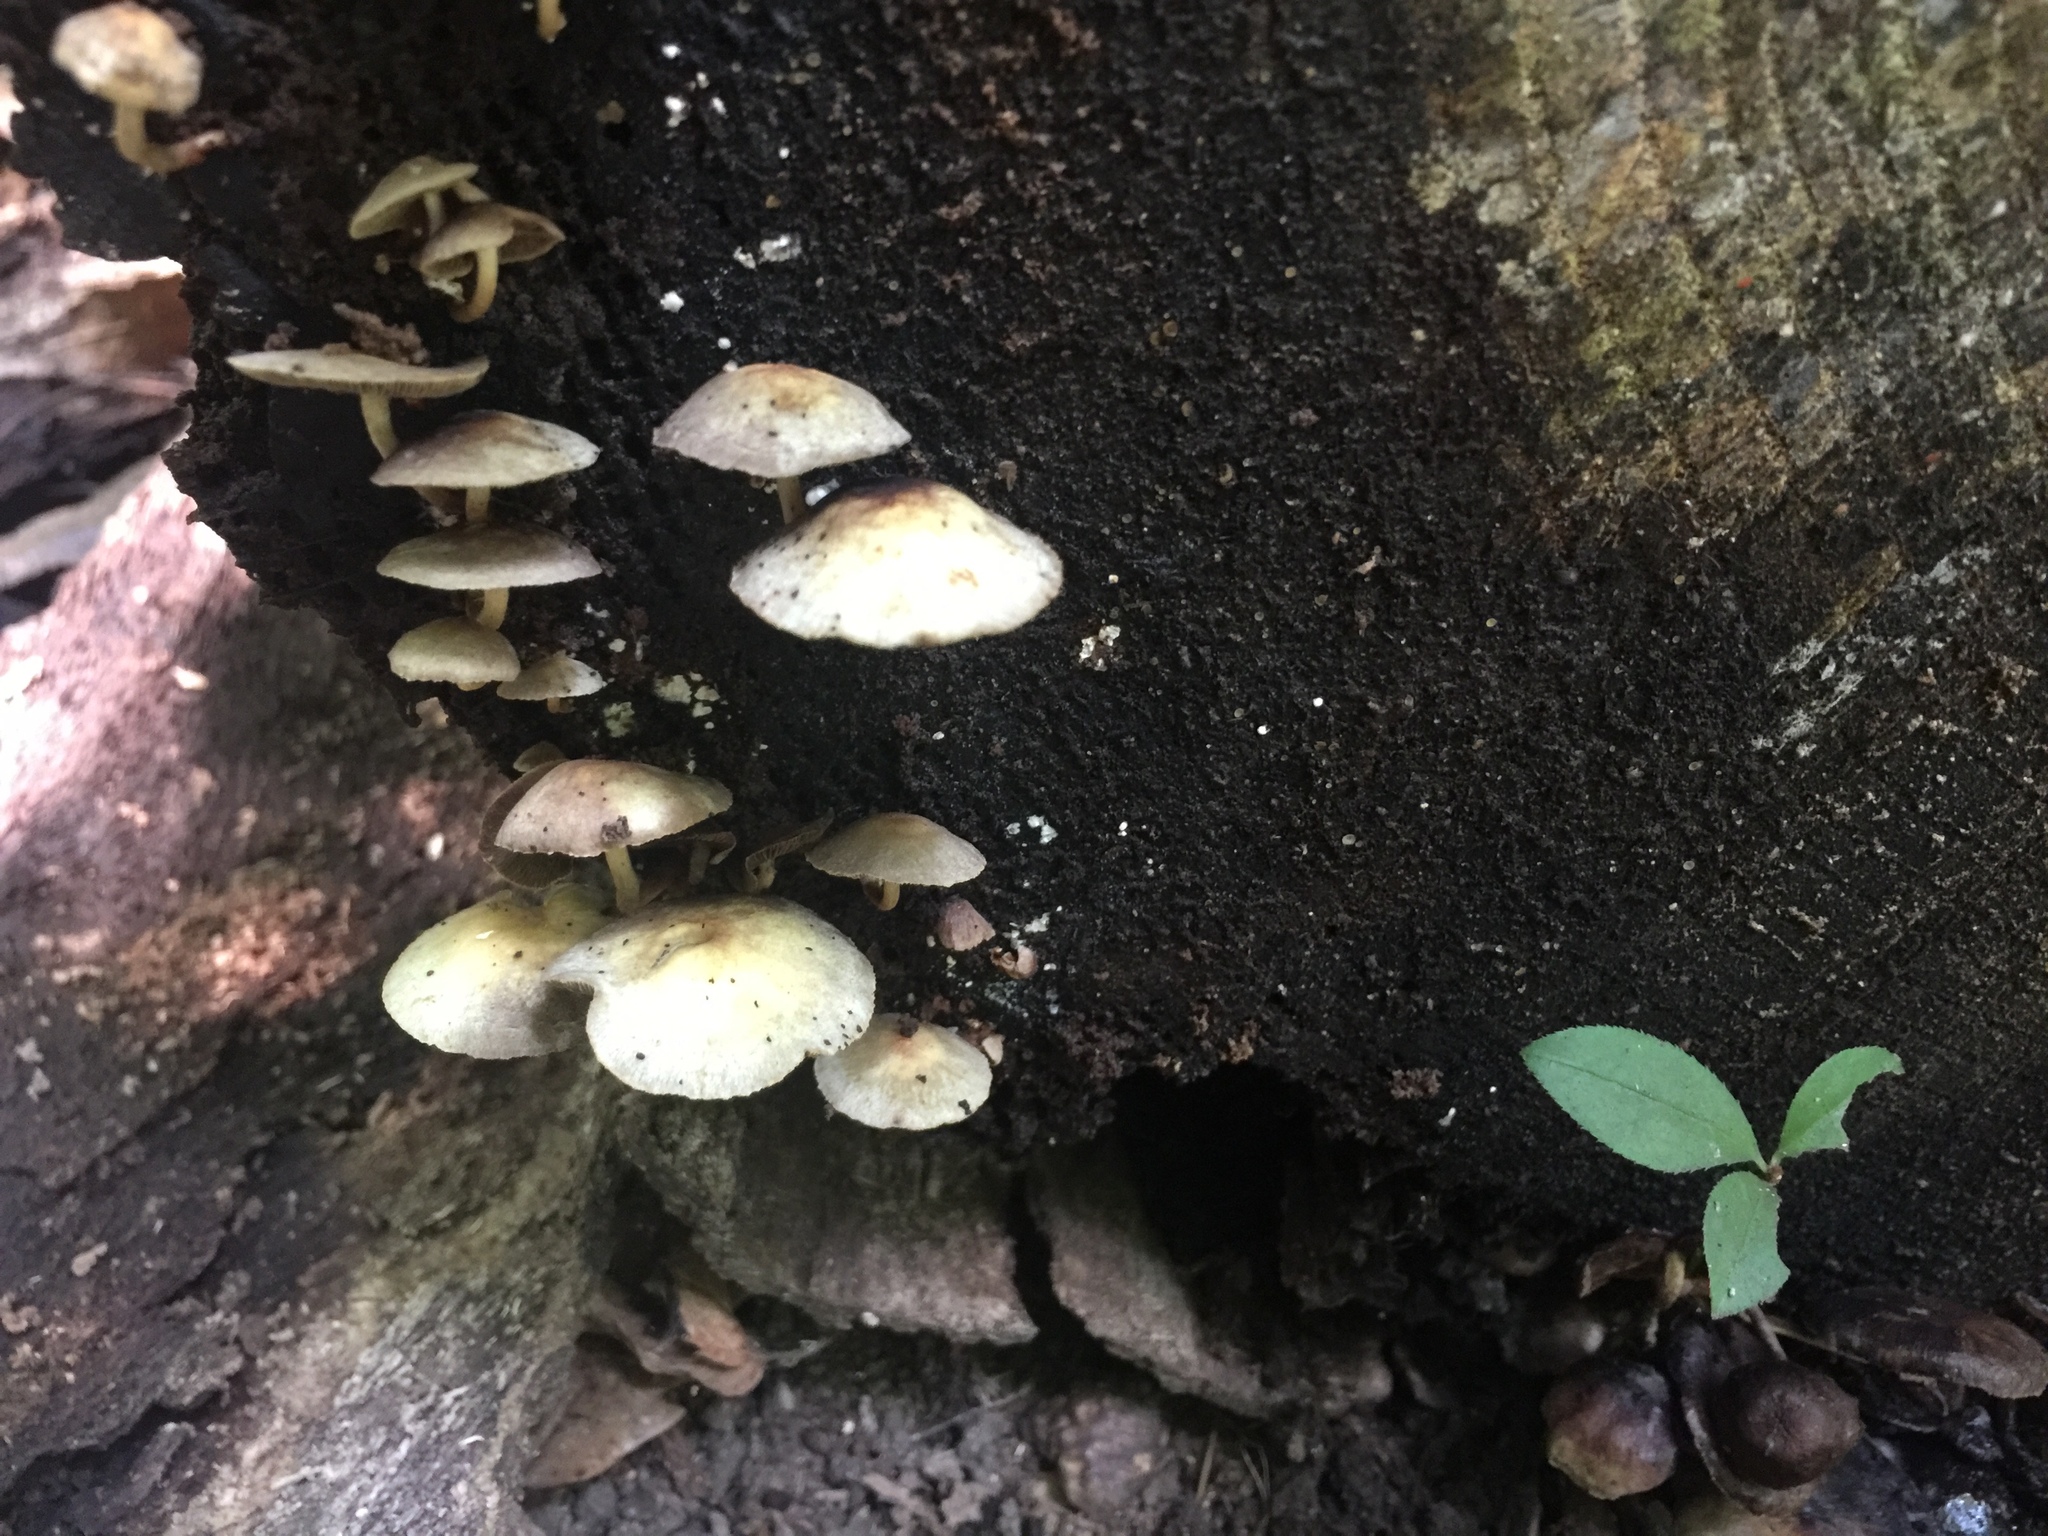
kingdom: Fungi
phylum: Basidiomycota
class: Agaricomycetes
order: Agaricales
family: Strophariaceae
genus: Hypholoma
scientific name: Hypholoma fasciculare
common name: Sulphur tuft
